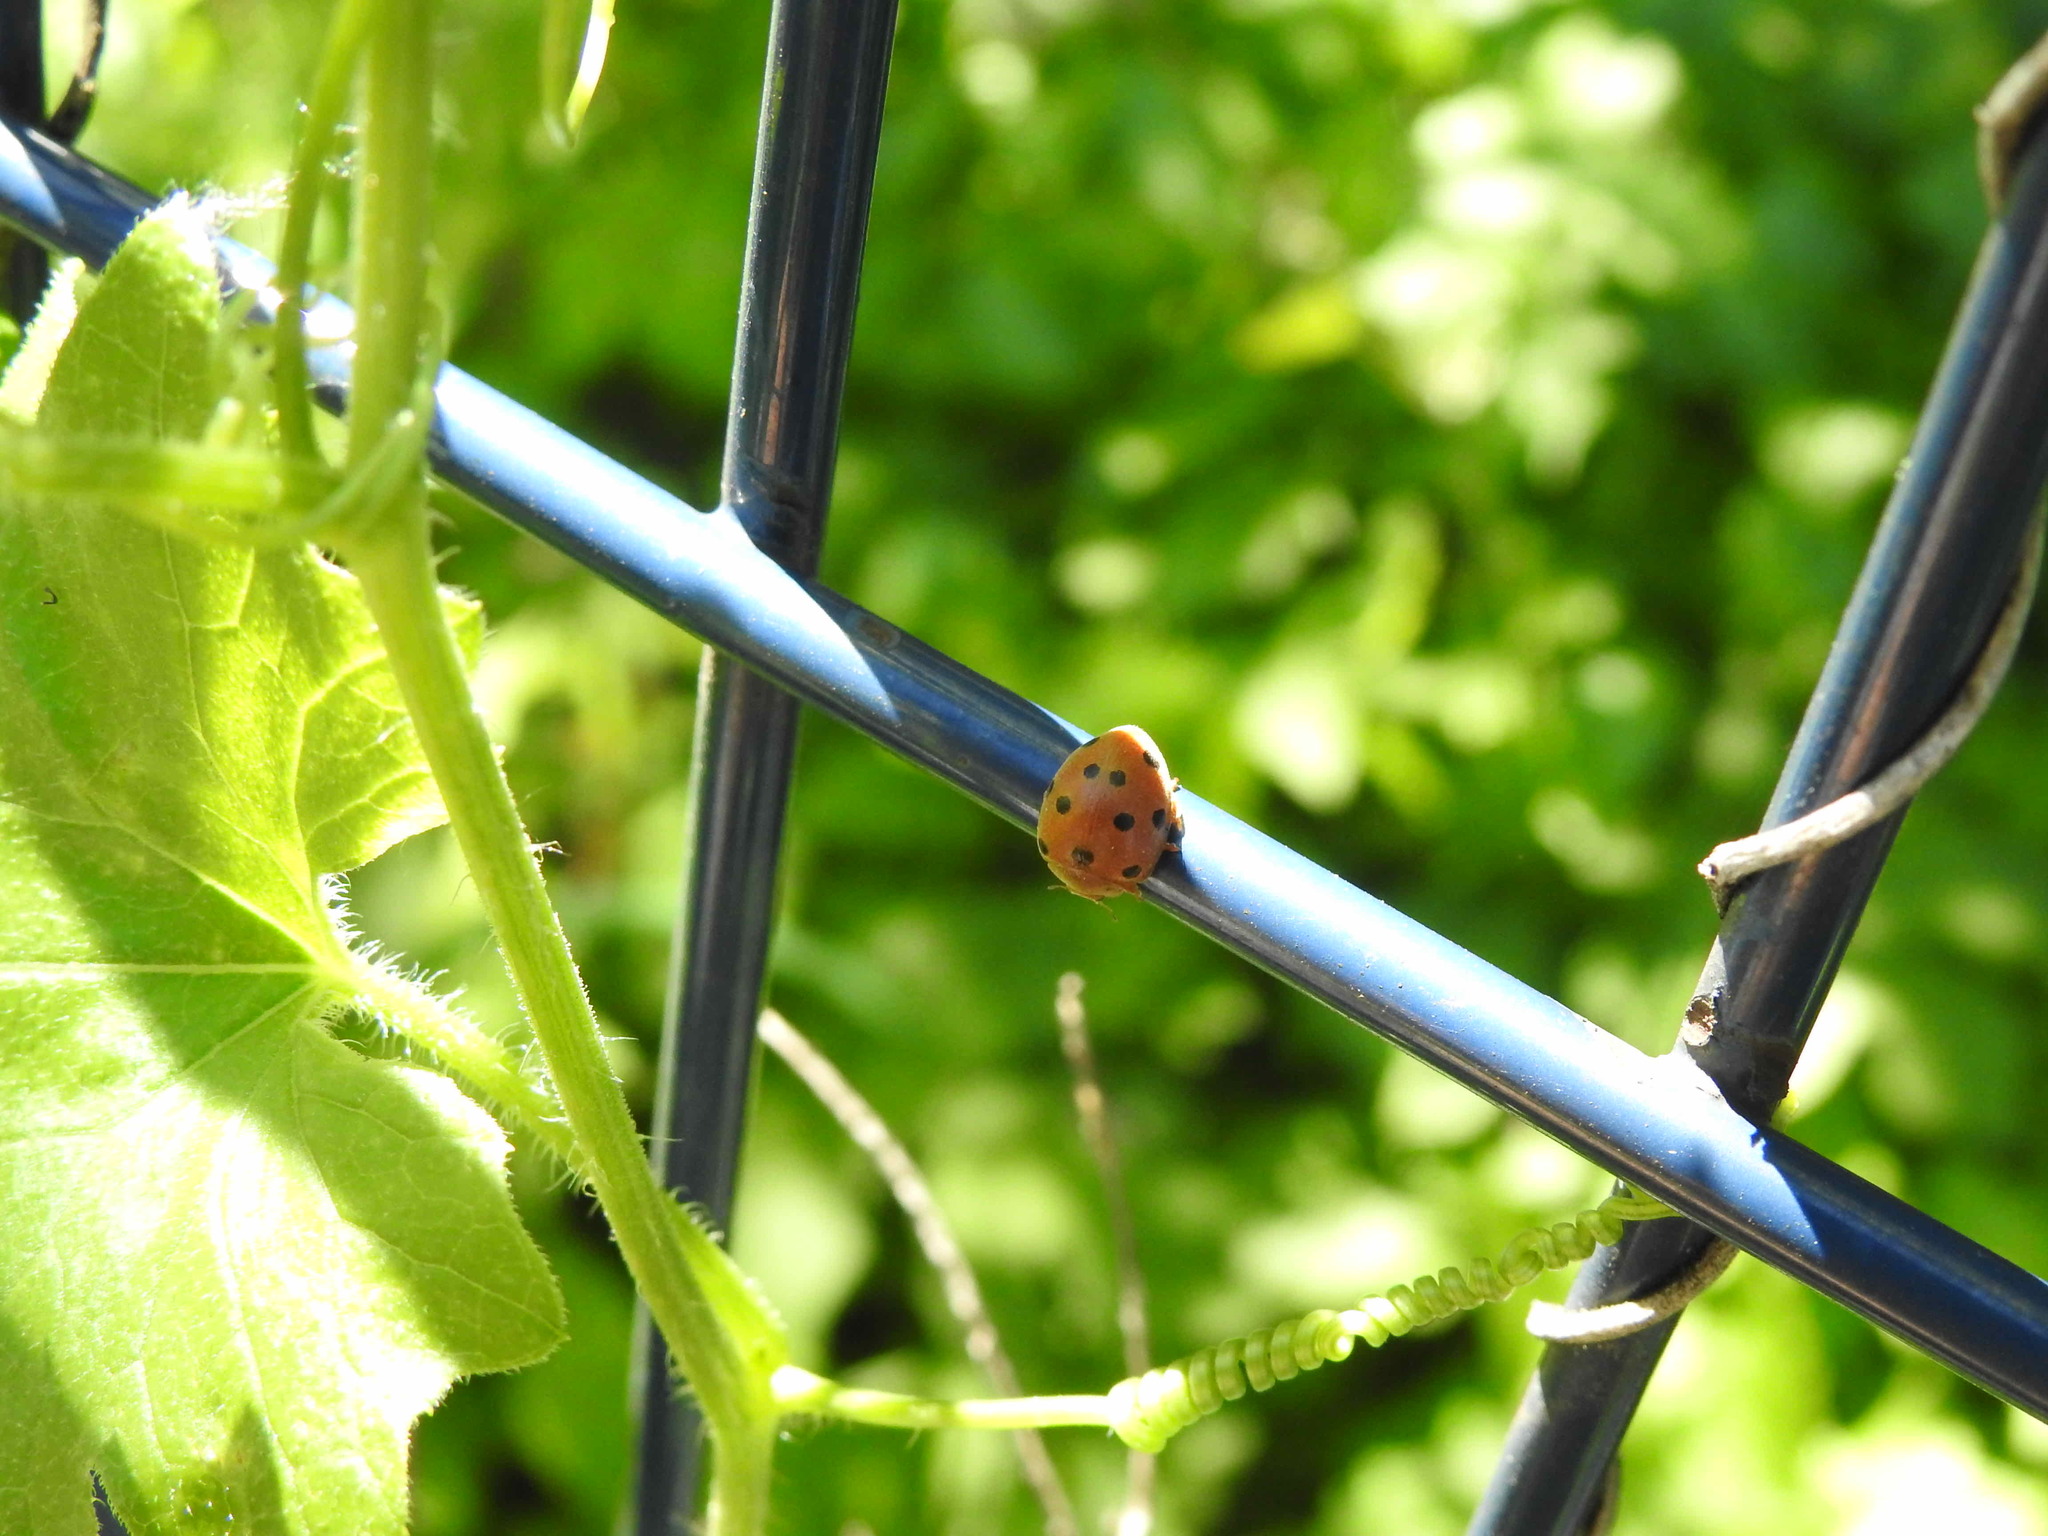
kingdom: Animalia
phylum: Arthropoda
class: Insecta
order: Coleoptera
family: Coccinellidae
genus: Henosepilachna
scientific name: Henosepilachna argus
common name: Bryony ladybird
